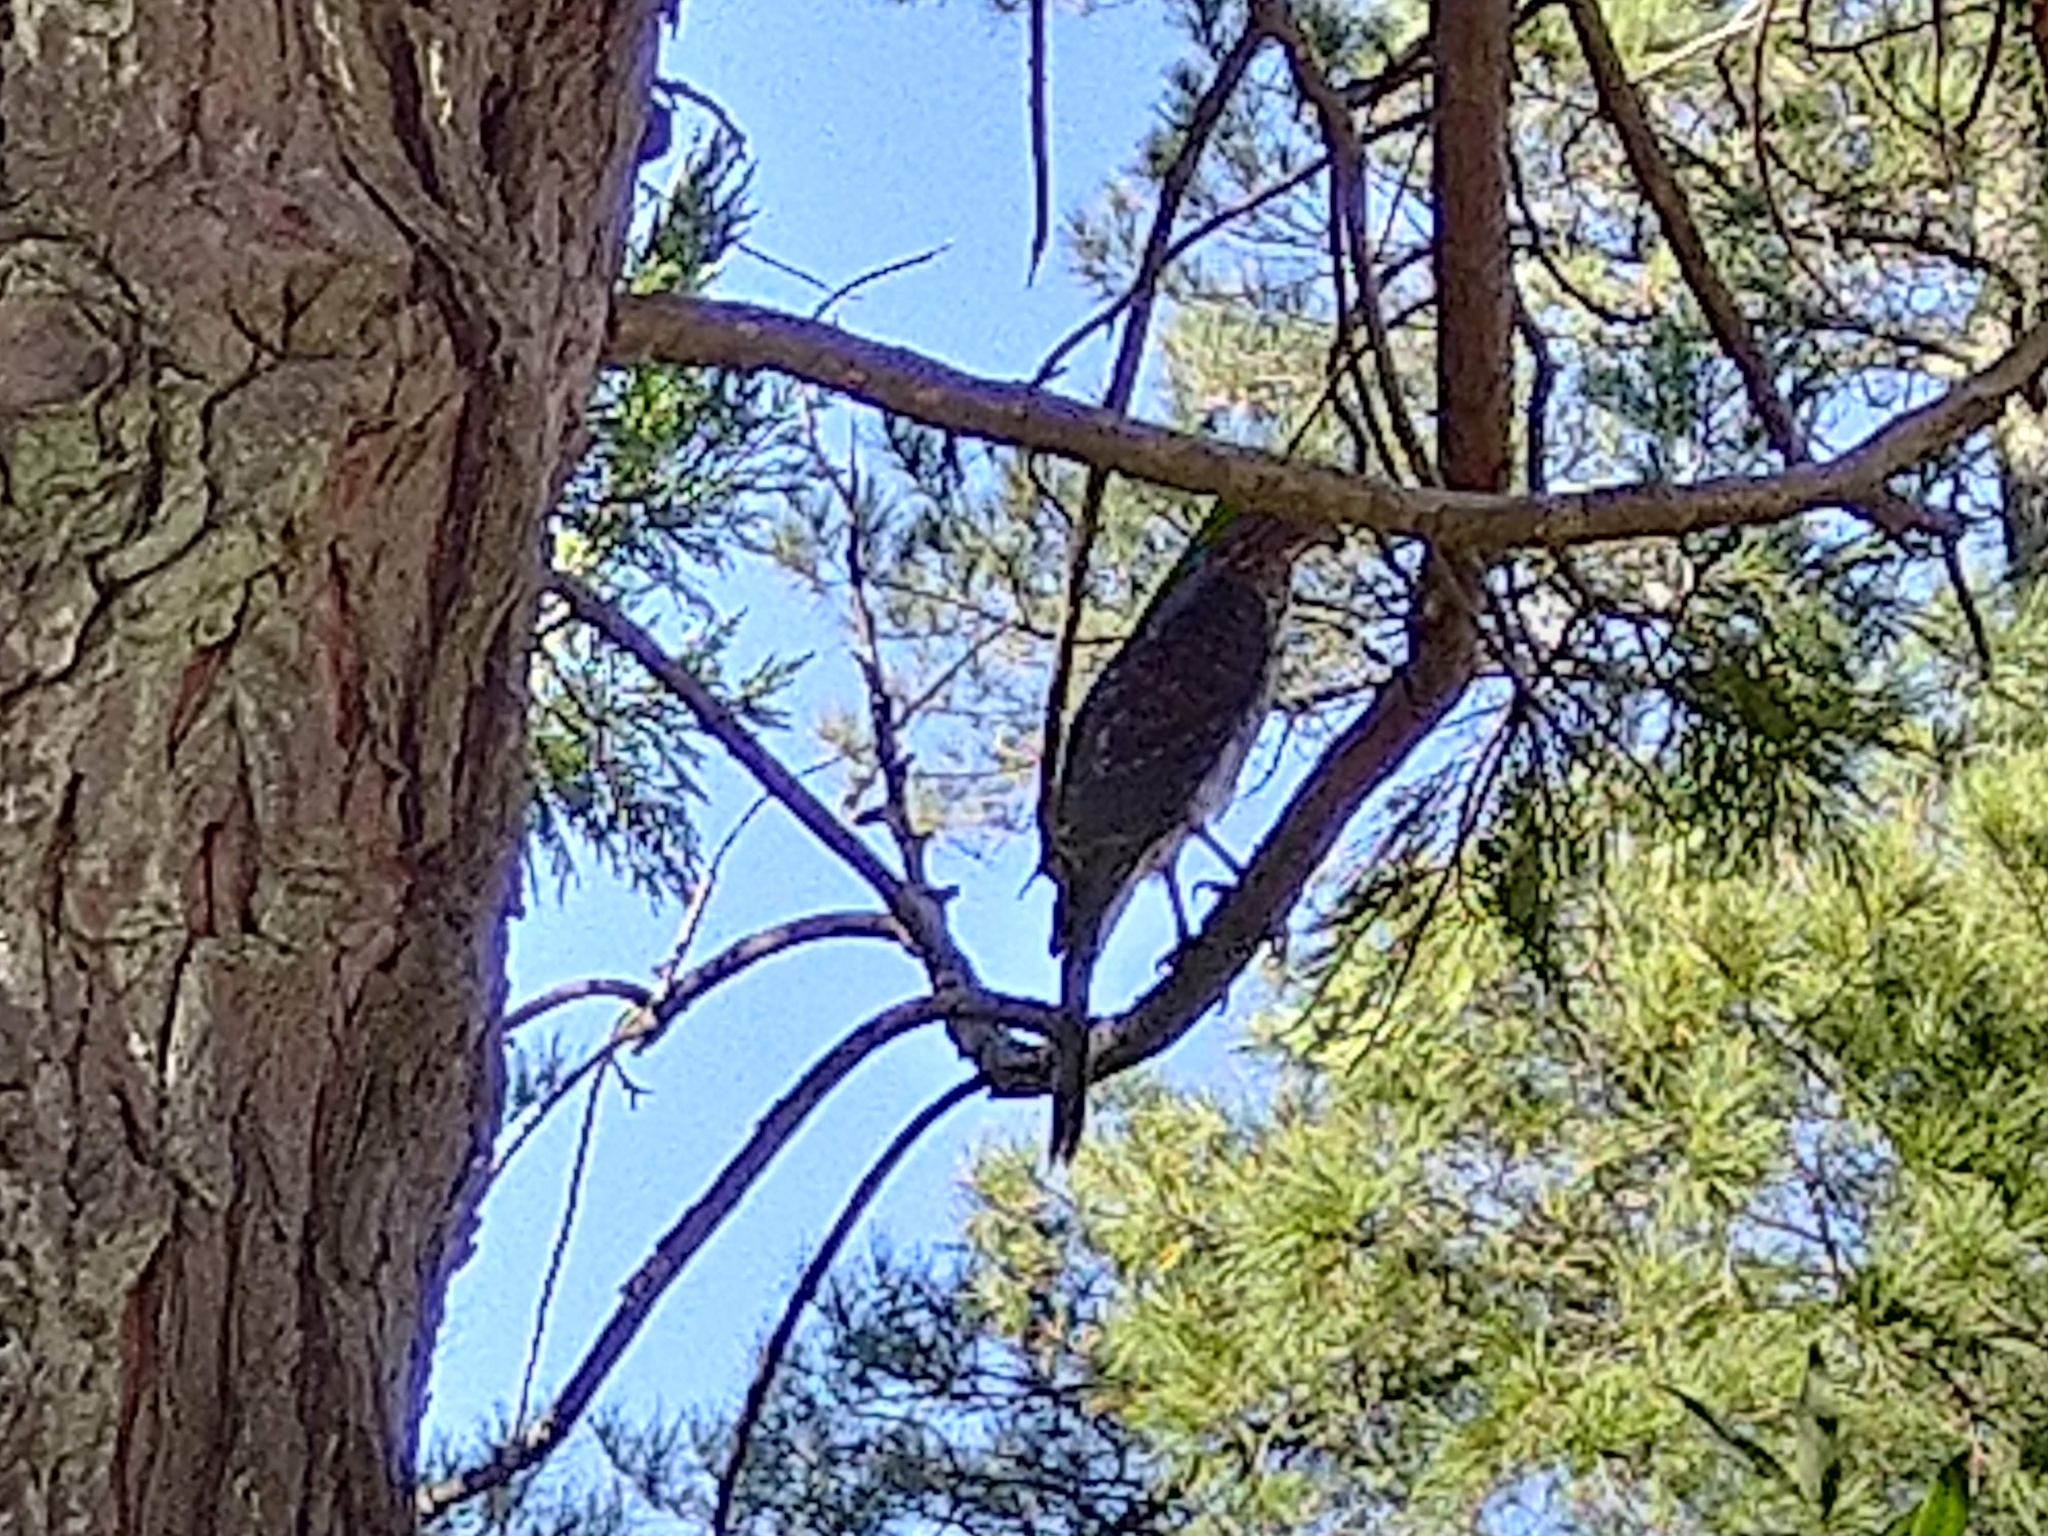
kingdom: Animalia
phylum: Chordata
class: Aves
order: Accipitriformes
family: Accipitridae
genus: Accipiter
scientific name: Accipiter cooperii
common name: Cooper's hawk
